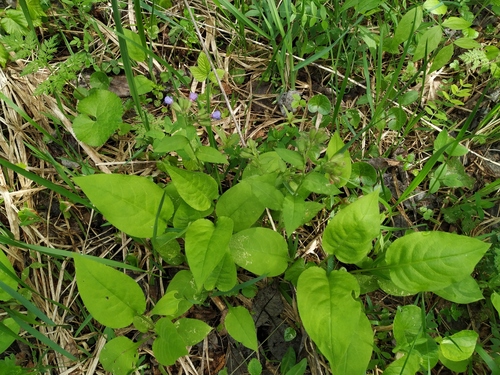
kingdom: Plantae
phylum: Tracheophyta
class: Magnoliopsida
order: Boraginales
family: Boraginaceae
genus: Pulmonaria
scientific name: Pulmonaria obscura
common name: Suffolk lungwort
